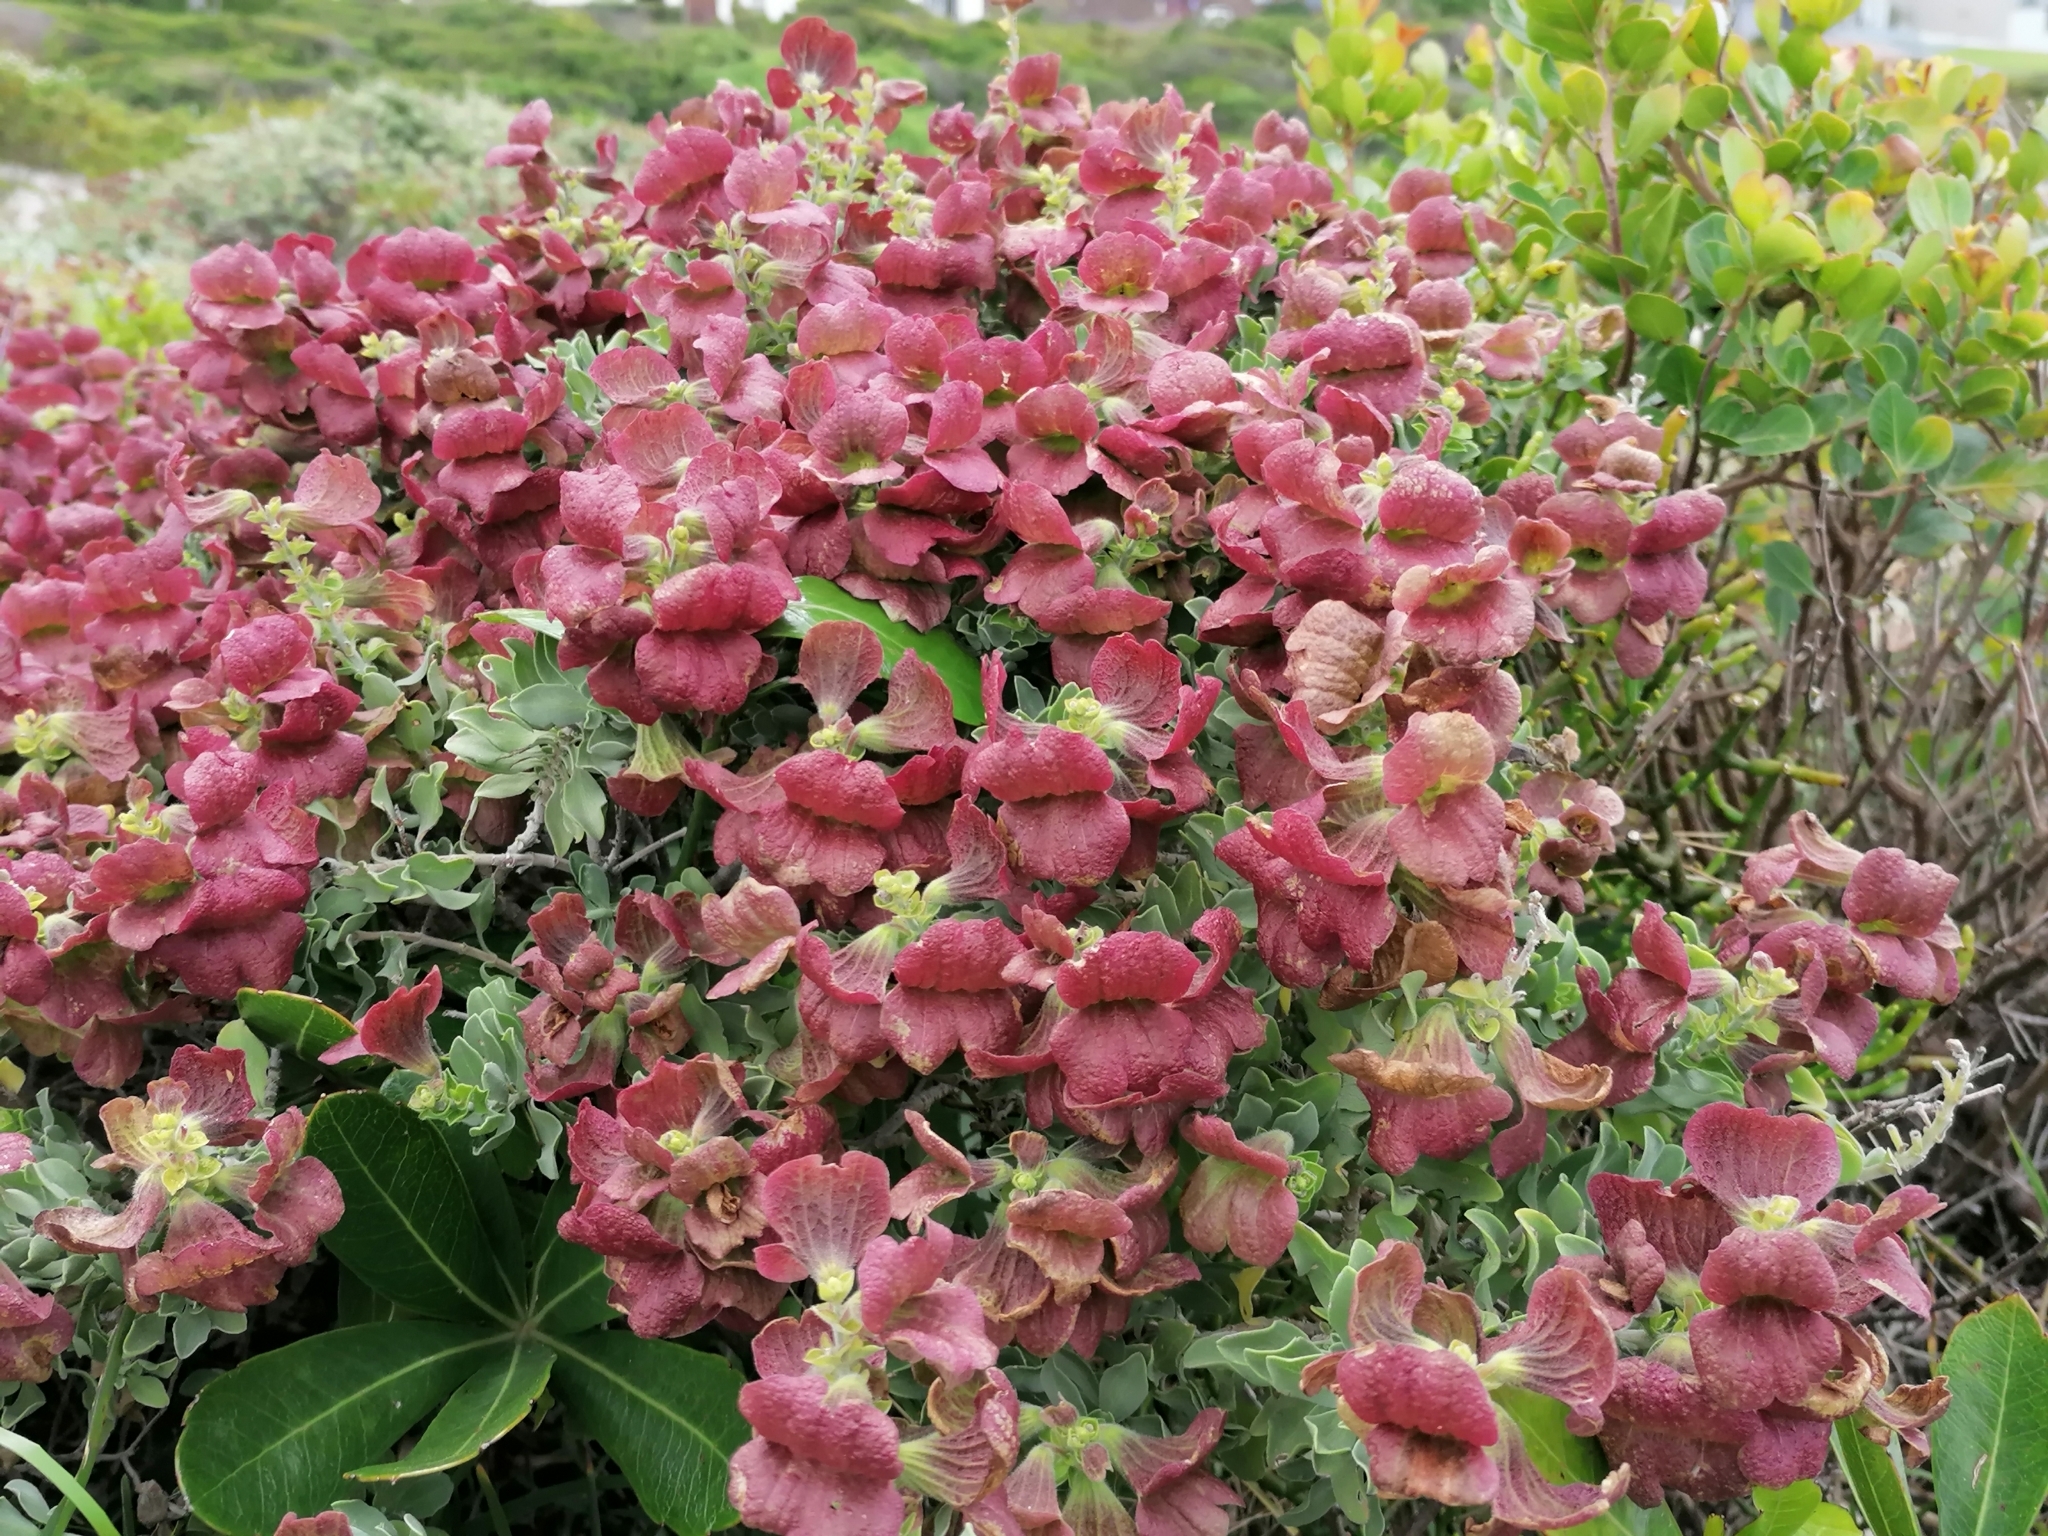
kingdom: Plantae
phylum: Tracheophyta
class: Magnoliopsida
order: Lamiales
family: Lamiaceae
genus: Salvia
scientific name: Salvia aurea
